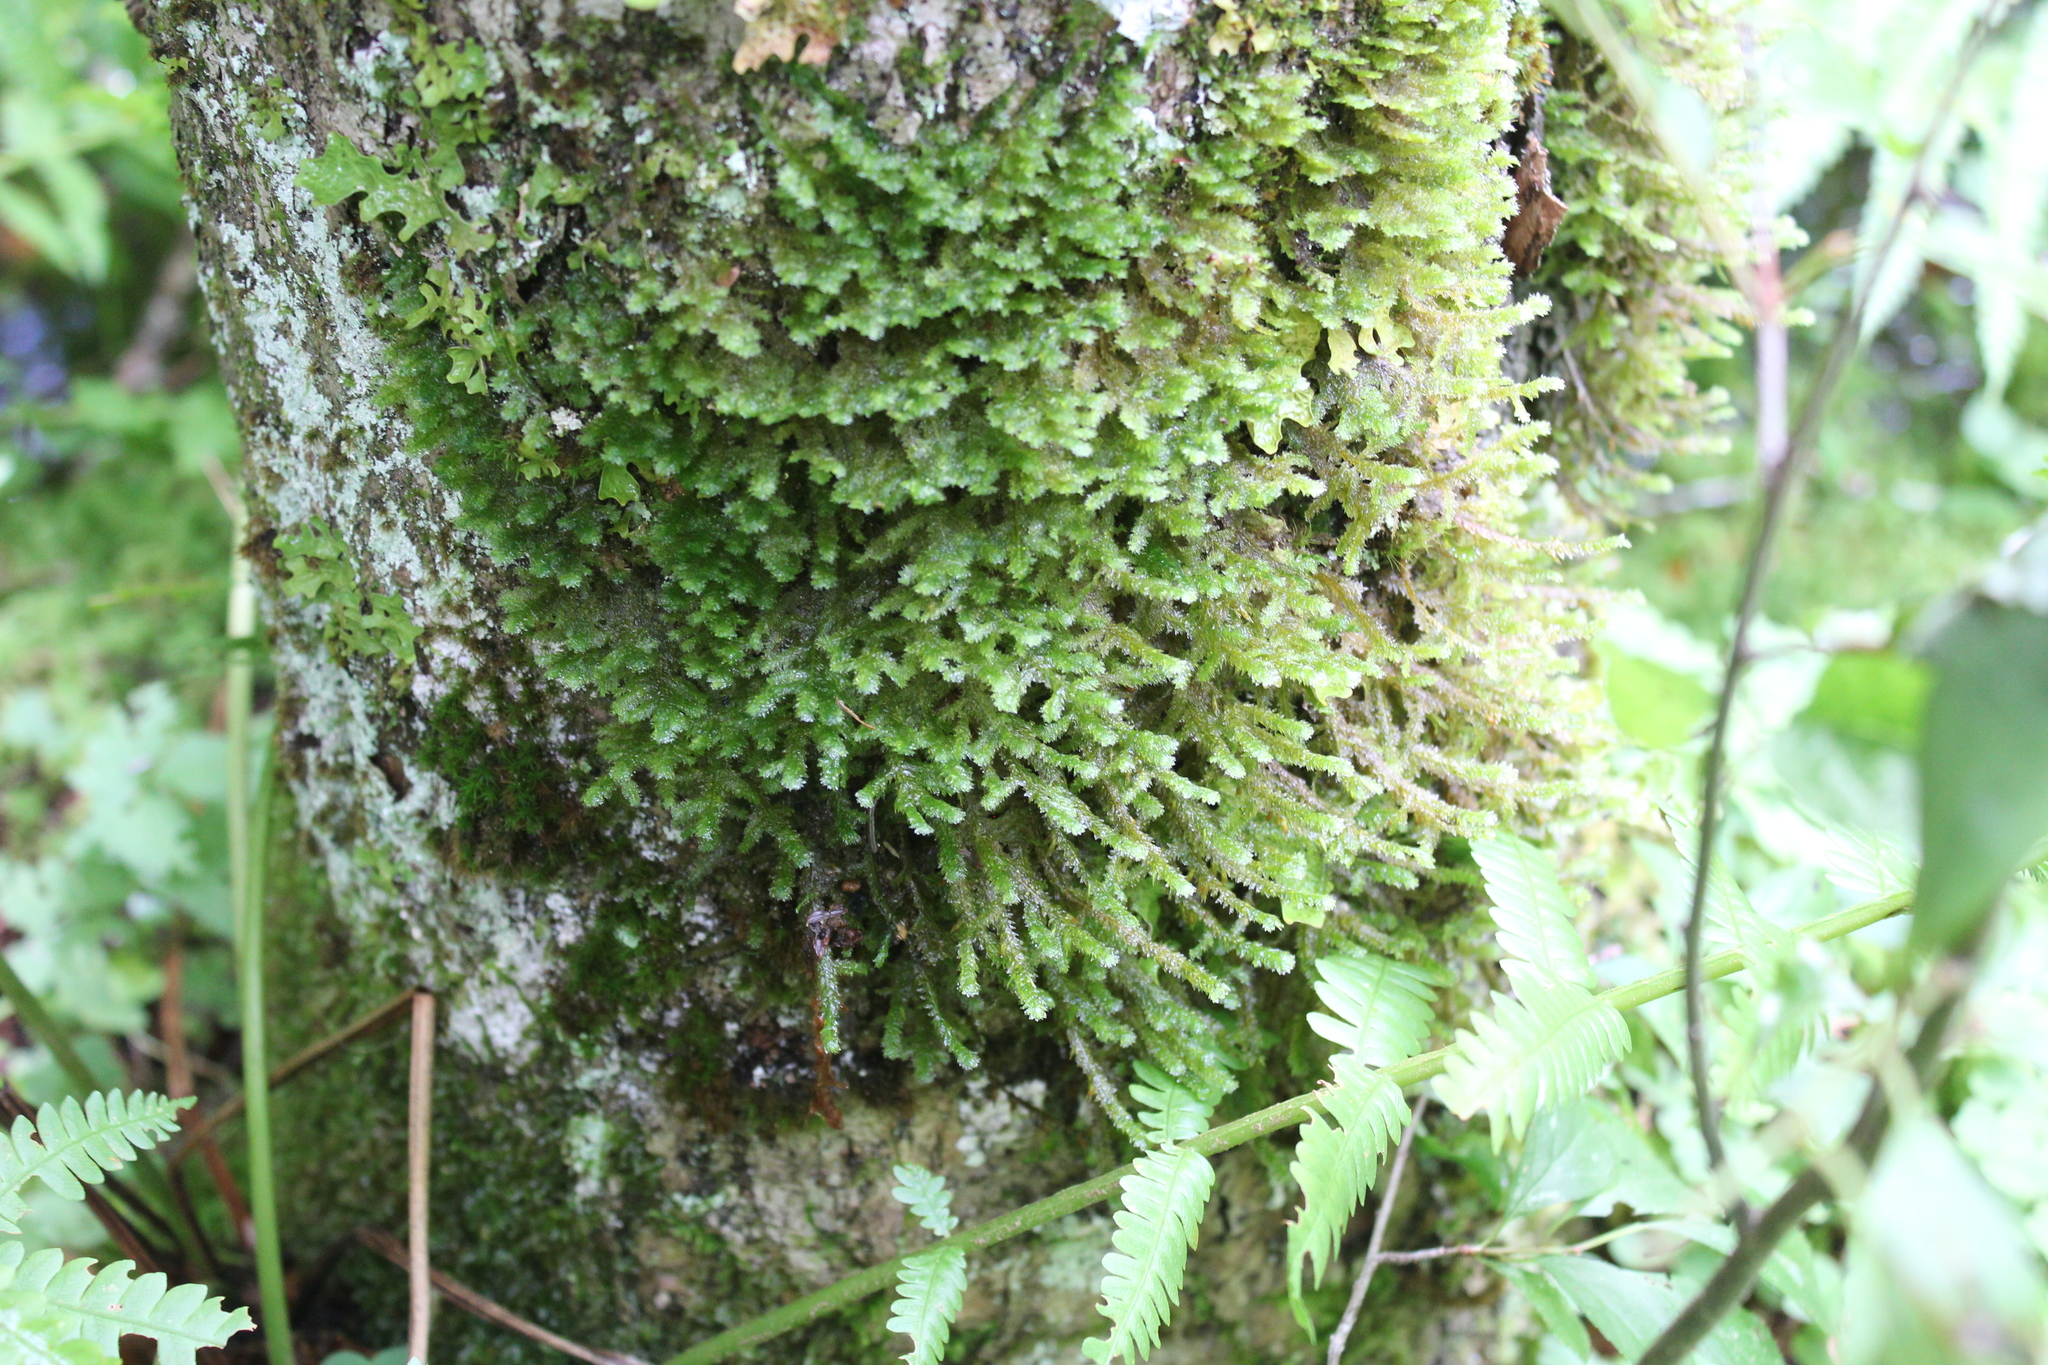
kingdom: Plantae
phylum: Bryophyta
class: Bryopsida
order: Hypnales
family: Neckeraceae
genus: Neckera
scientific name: Neckera pennata
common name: Feathery neckera
